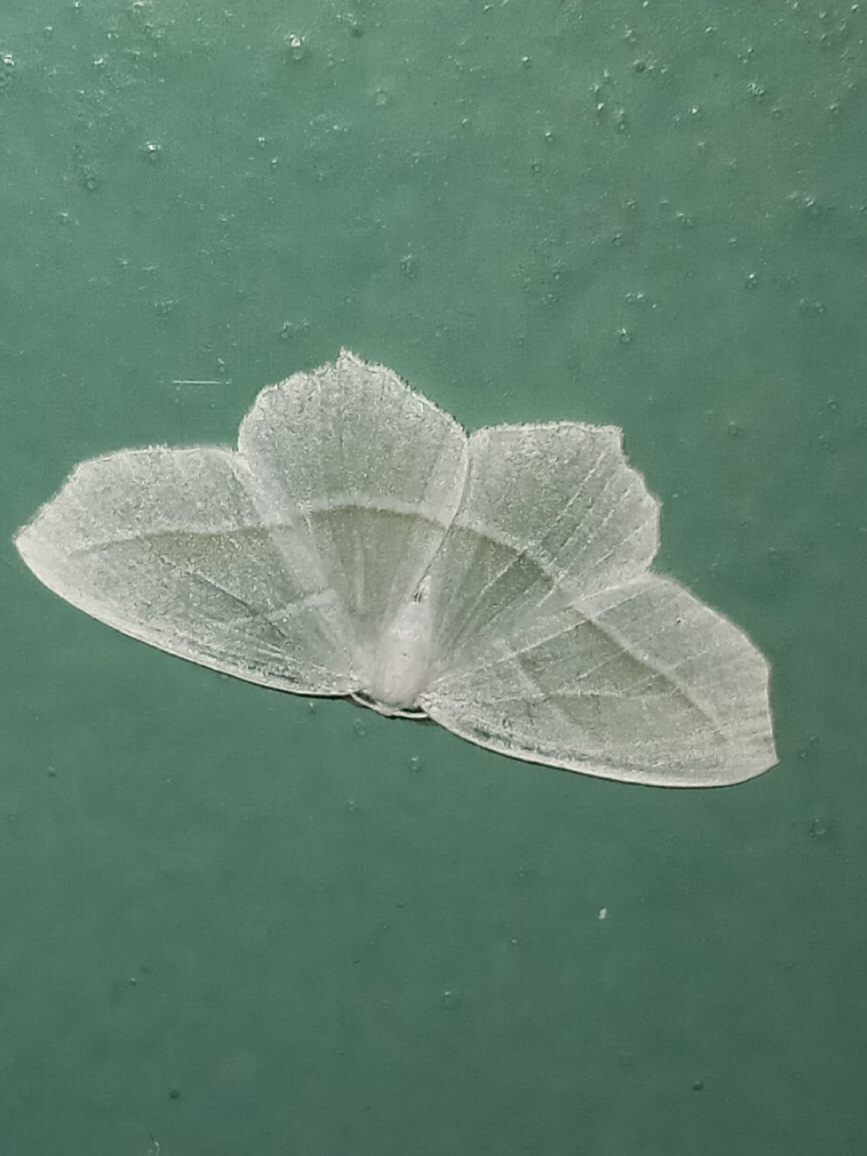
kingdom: Animalia
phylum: Arthropoda
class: Insecta
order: Lepidoptera
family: Geometridae
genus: Campaea
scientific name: Campaea perlata
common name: Fringed looper
